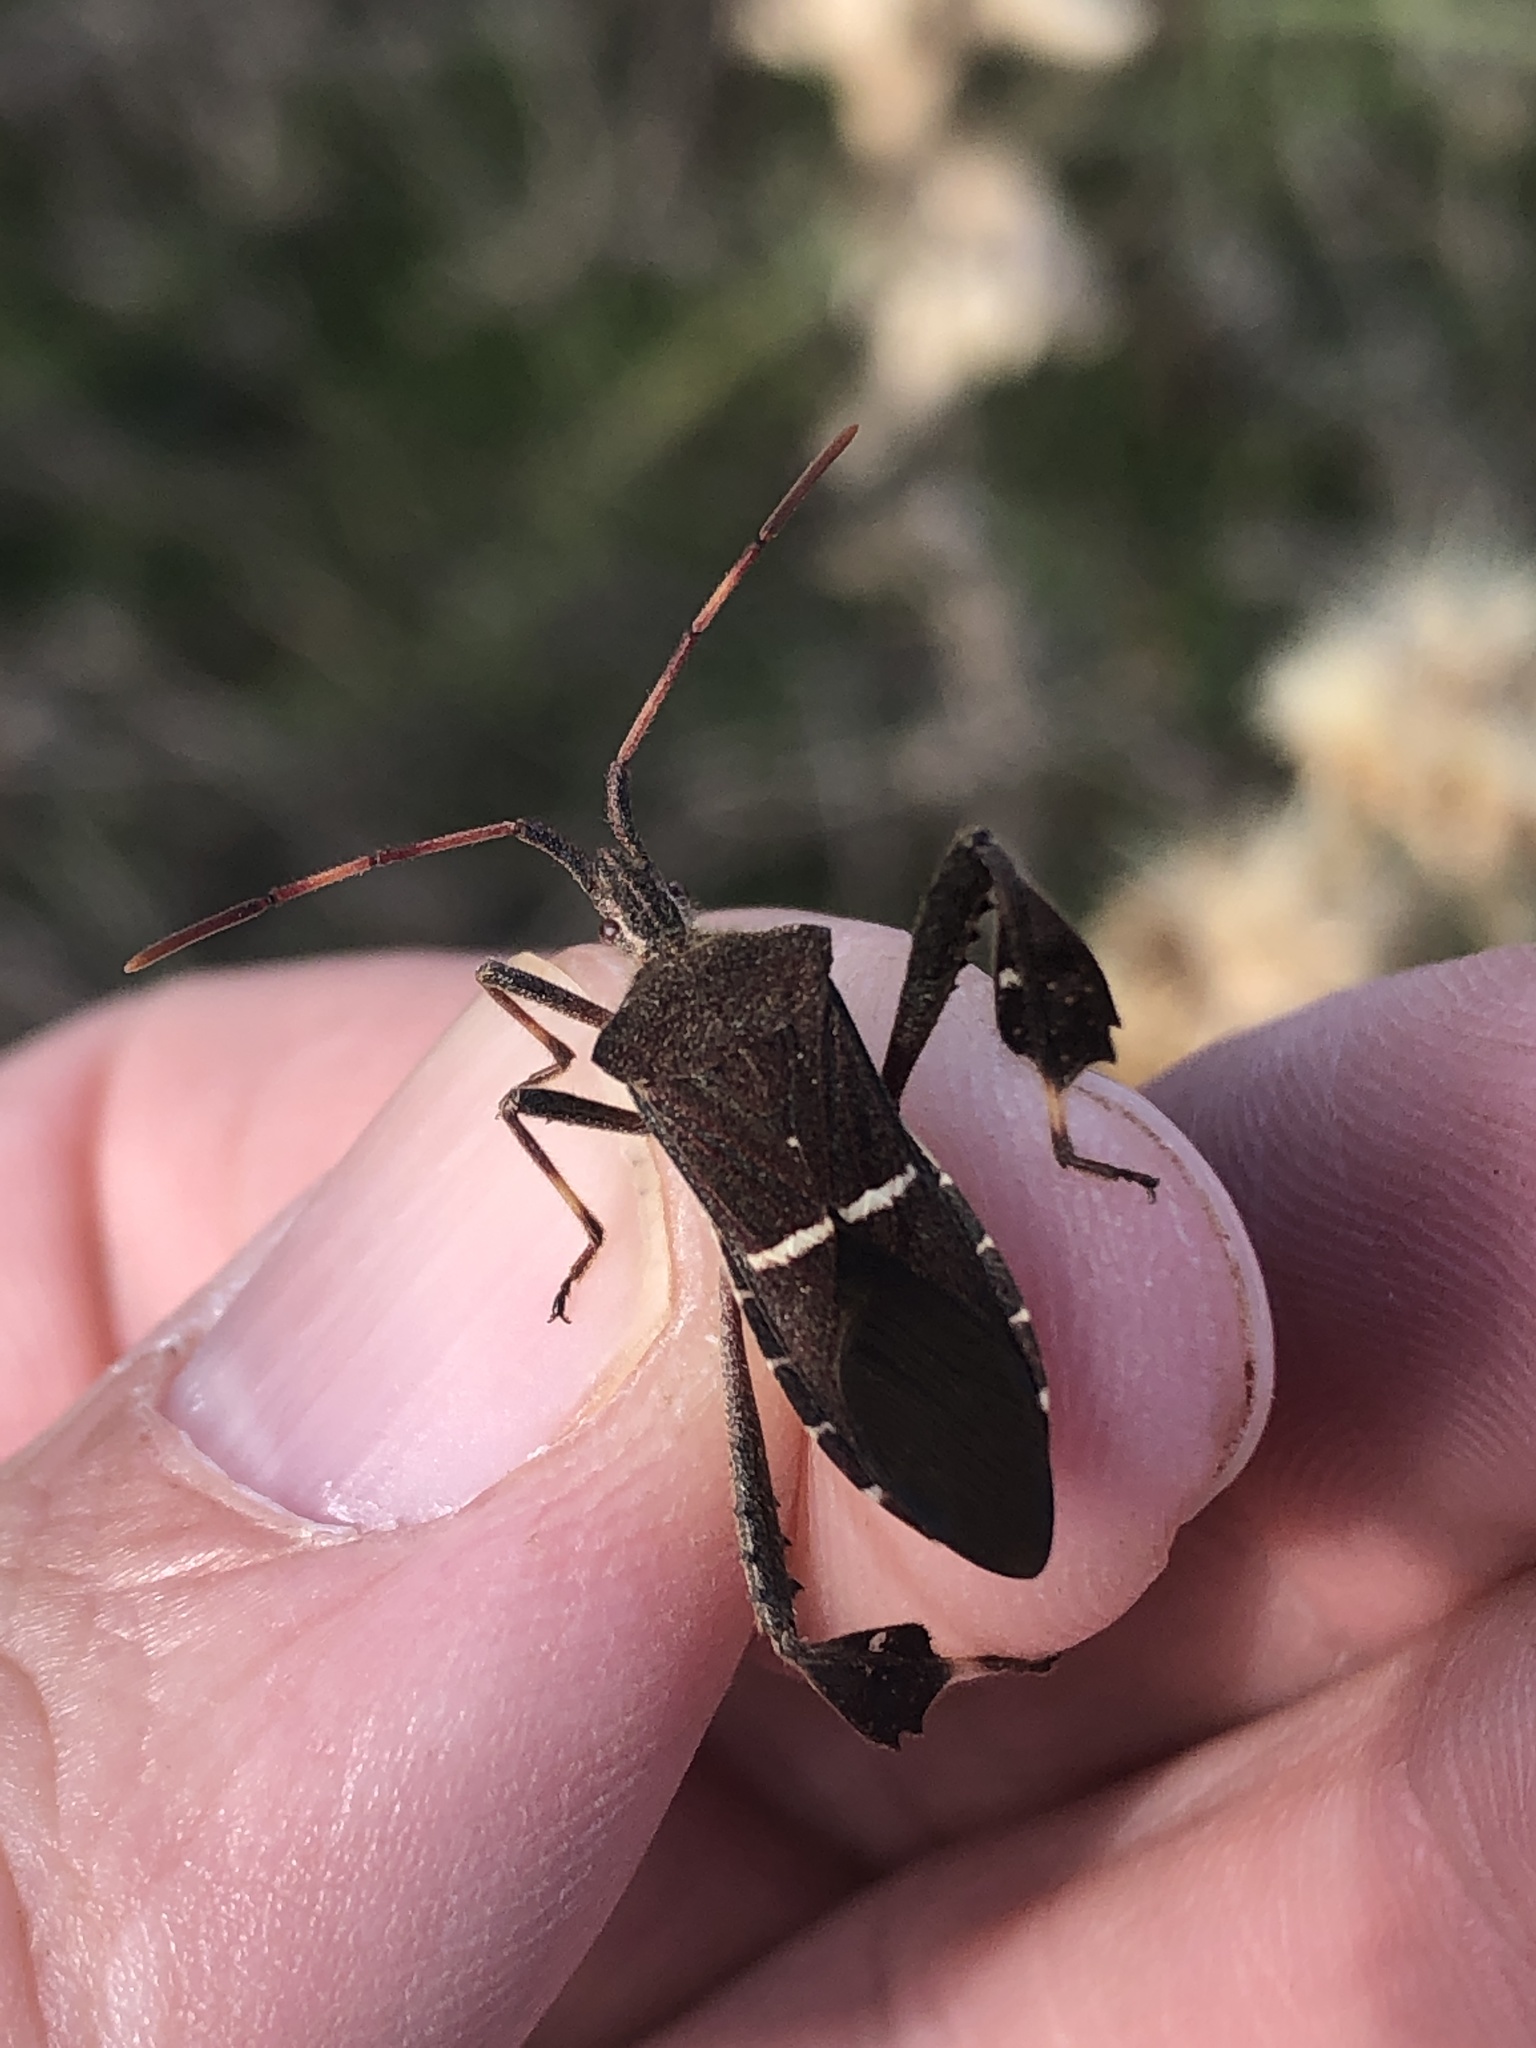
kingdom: Animalia
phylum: Arthropoda
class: Insecta
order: Hemiptera
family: Coreidae
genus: Leptoglossus
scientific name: Leptoglossus phyllopus
